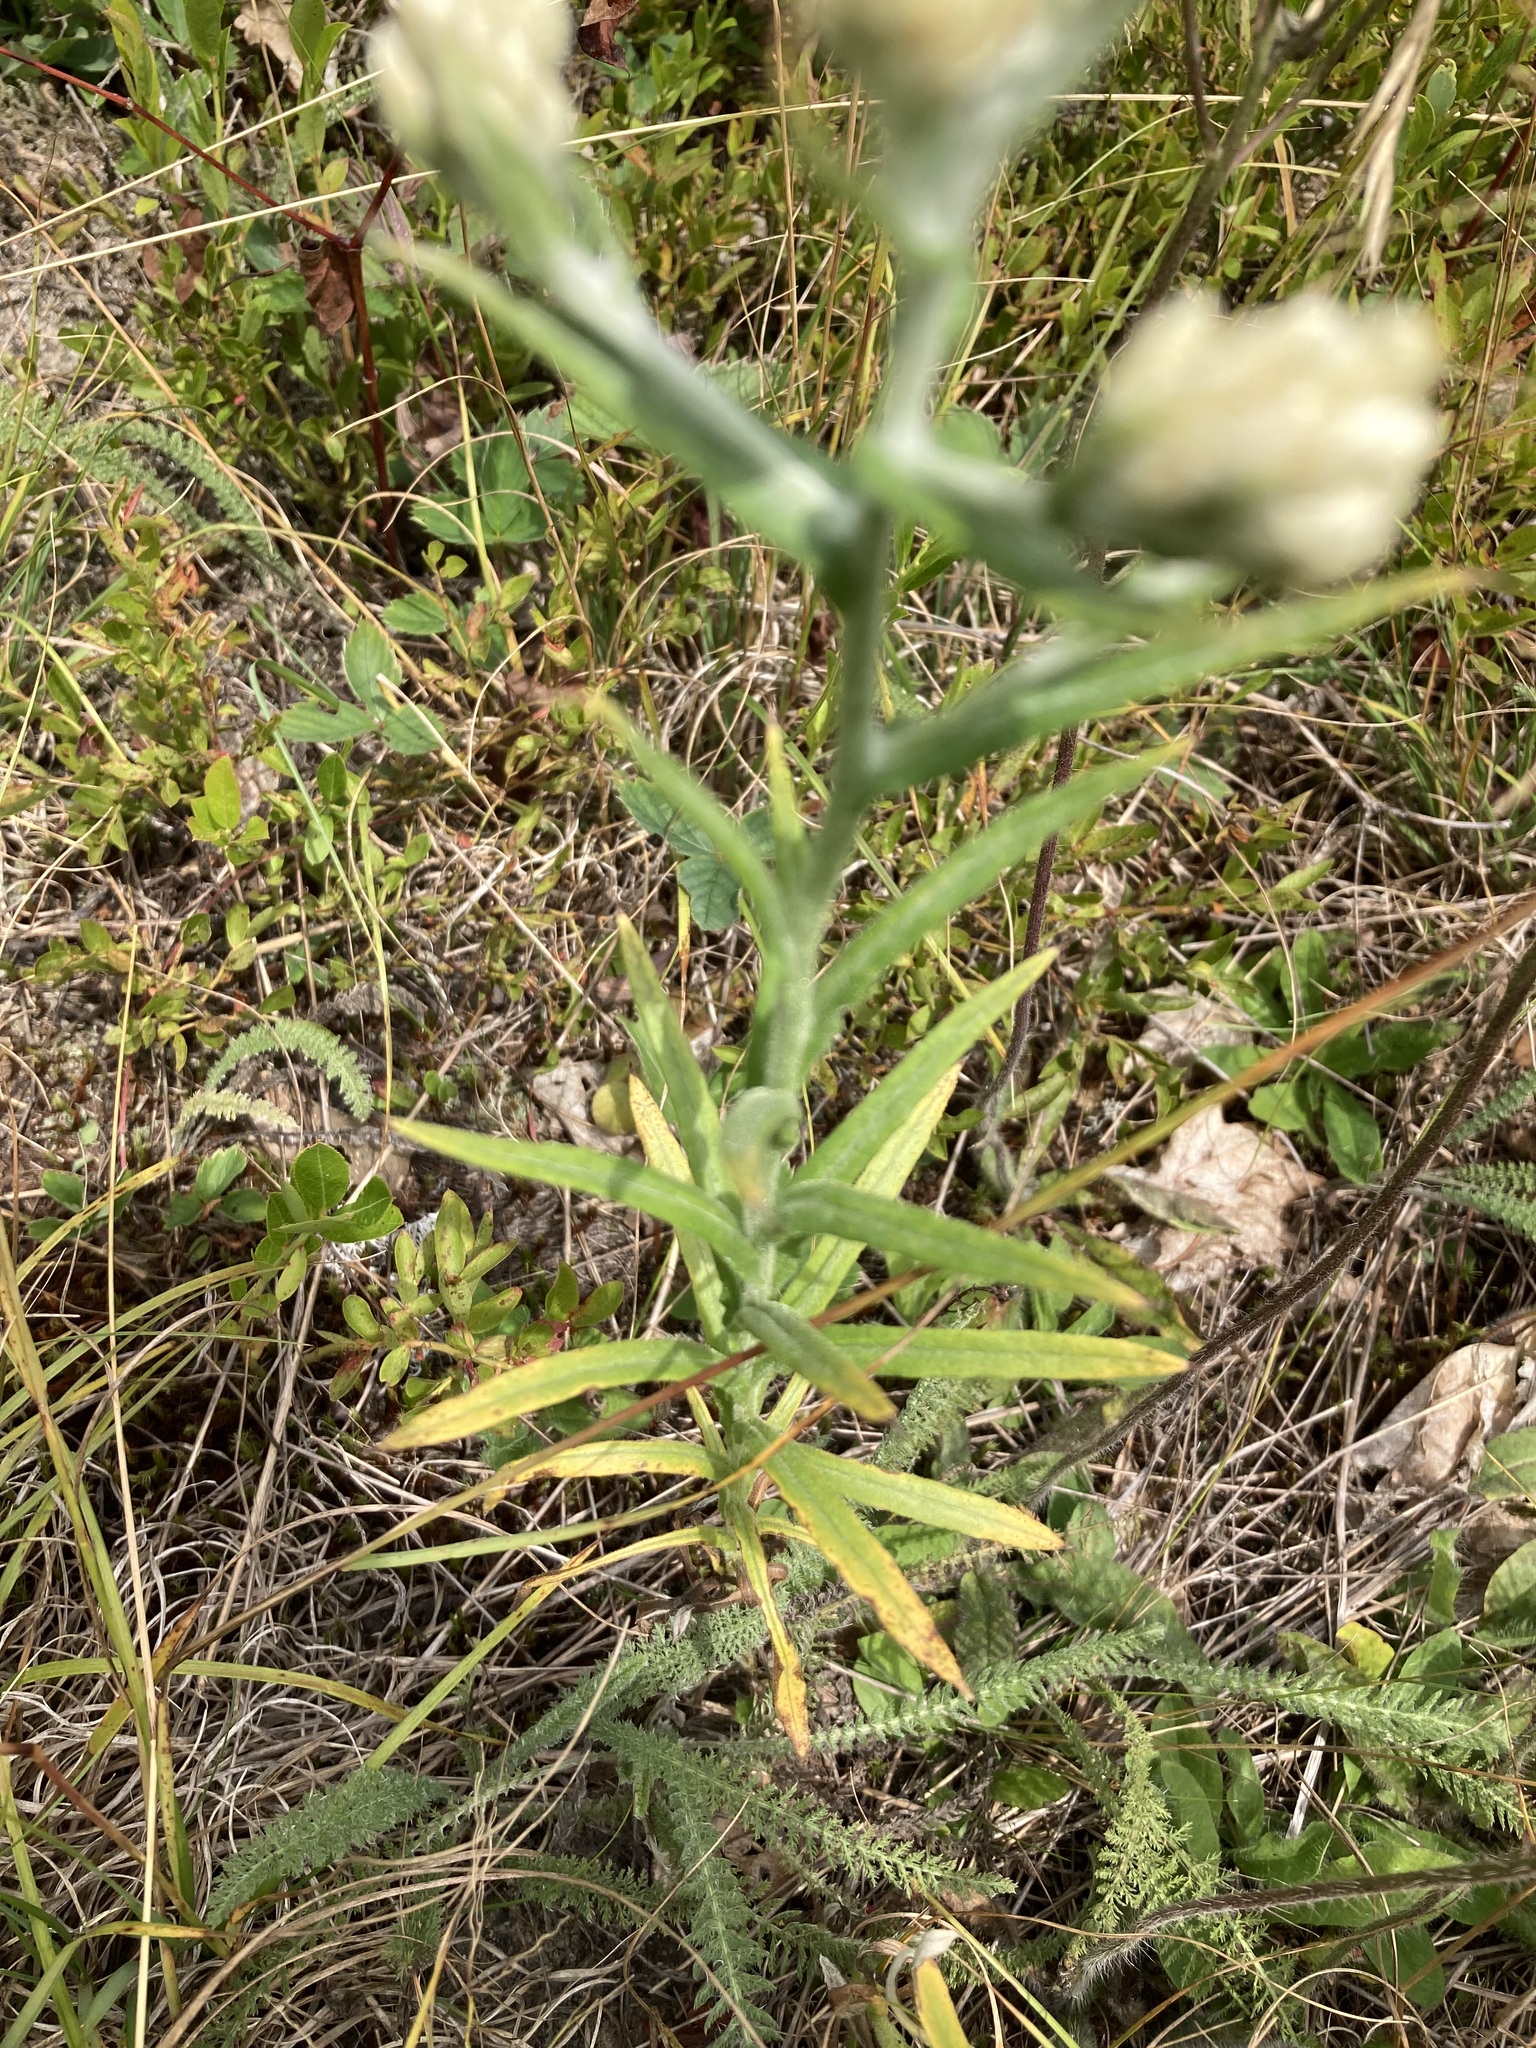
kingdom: Plantae
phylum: Tracheophyta
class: Magnoliopsida
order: Asterales
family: Asteraceae
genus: Pseudognaphalium
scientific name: Pseudognaphalium macounii
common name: Clammy cudweed
